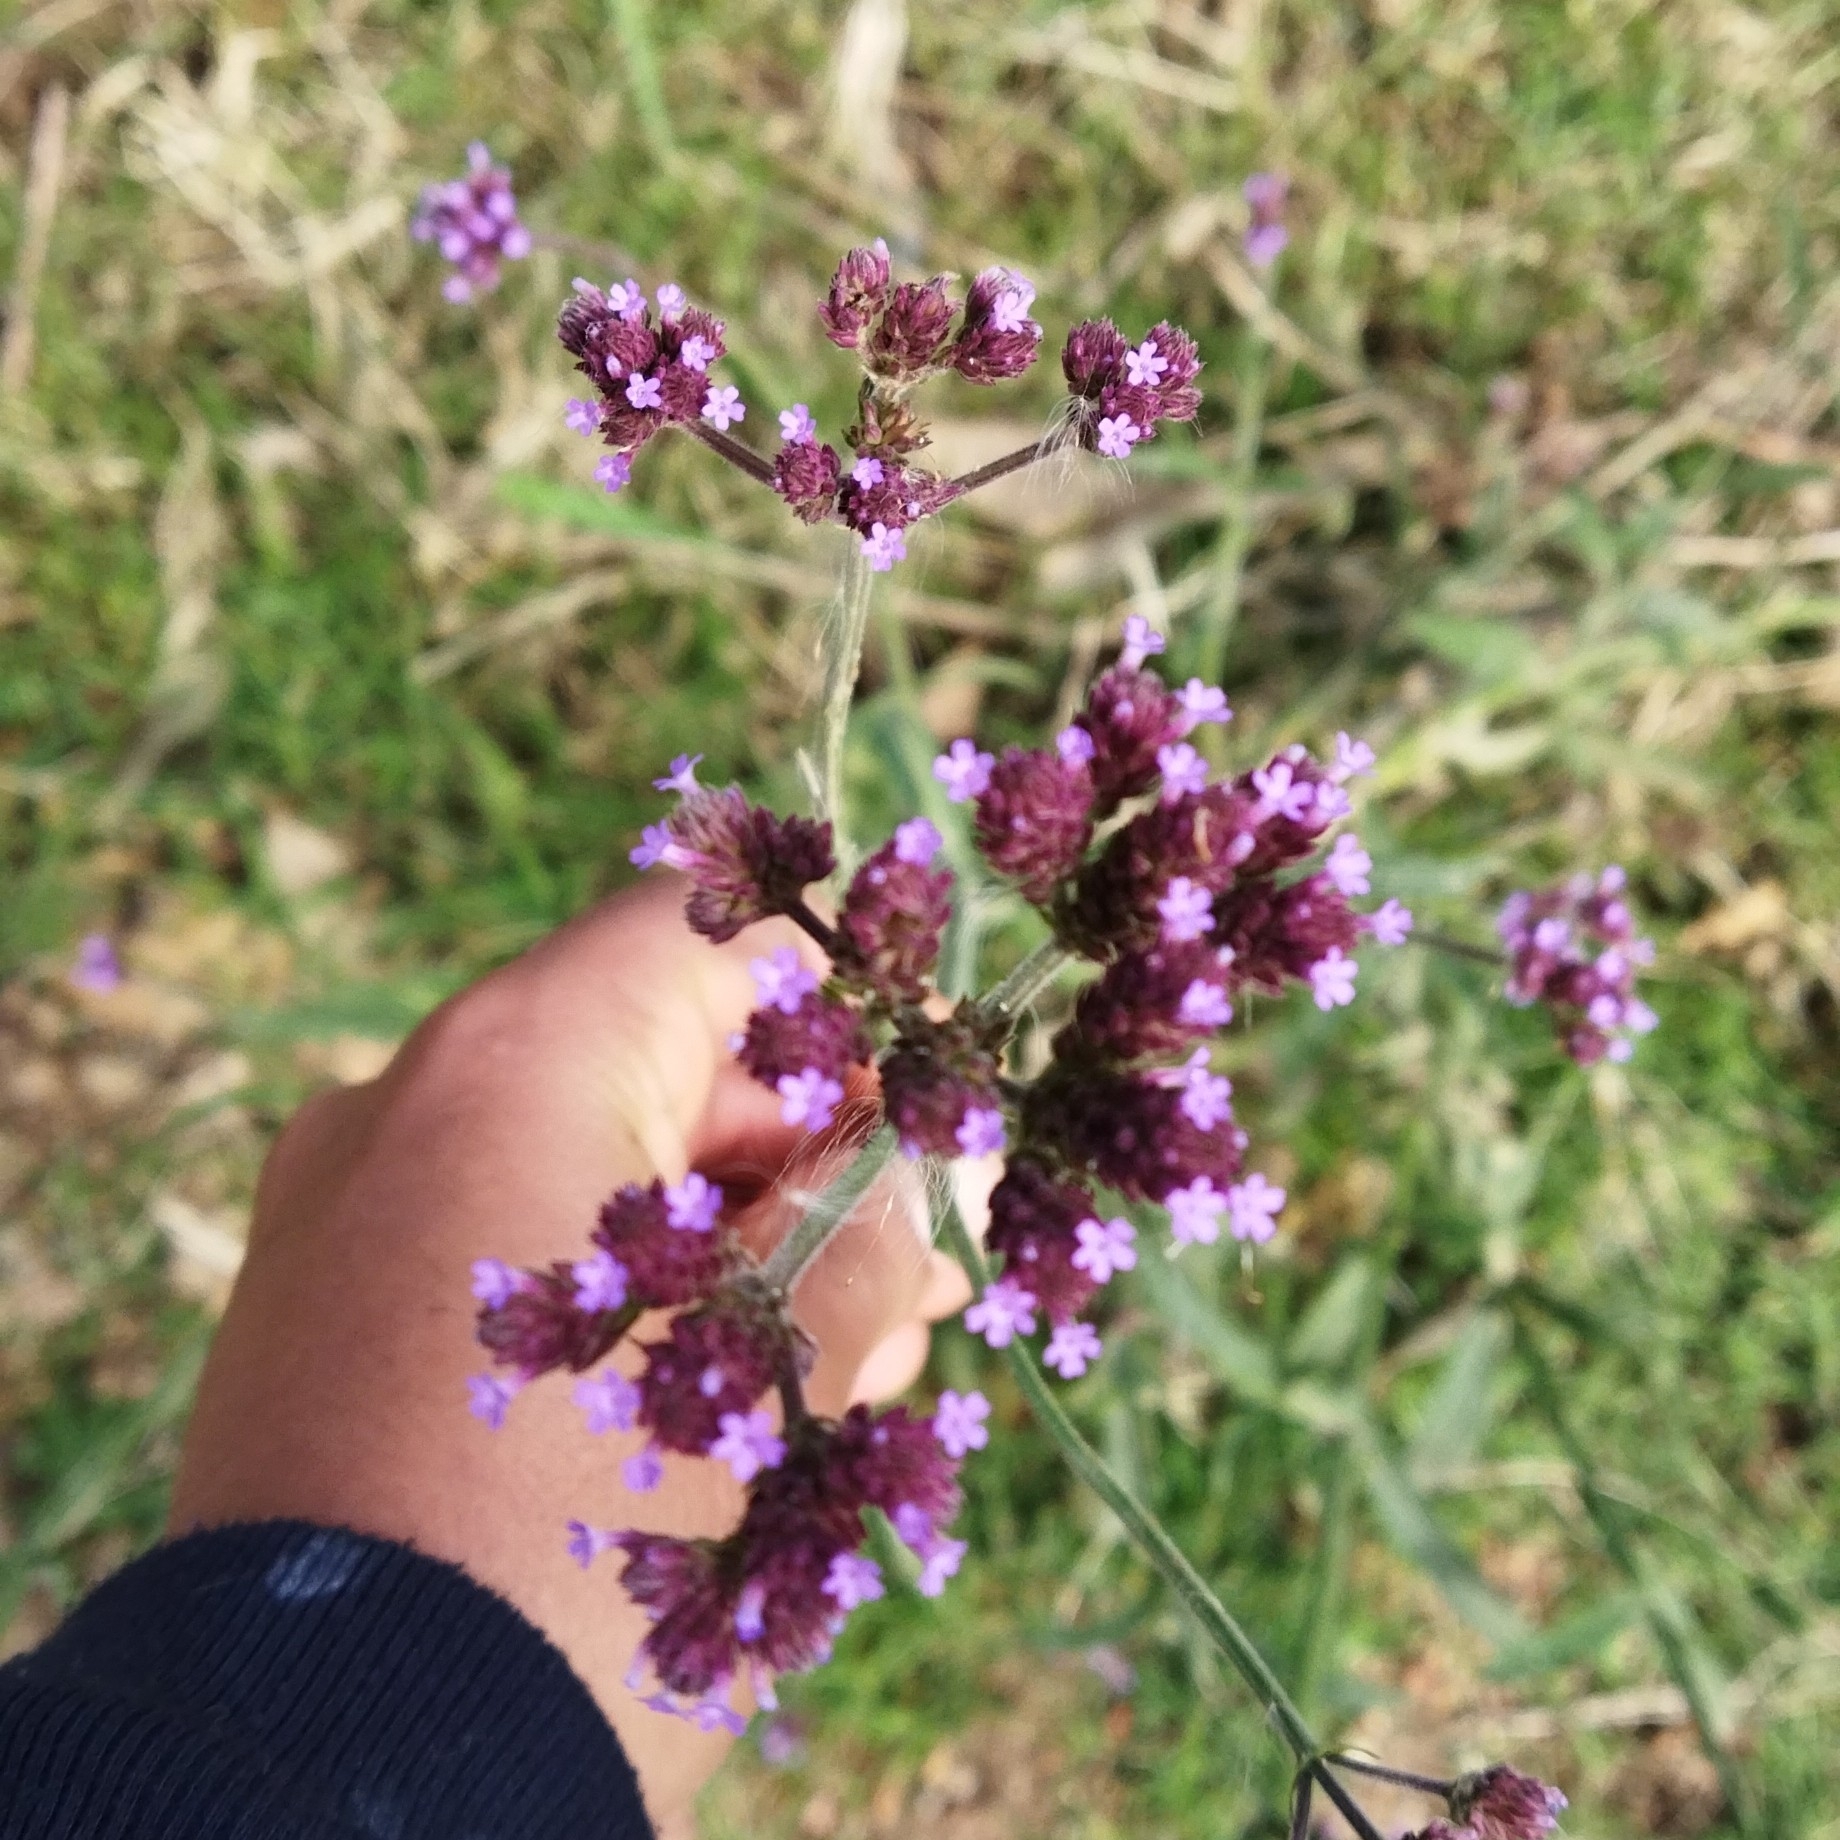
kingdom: Plantae
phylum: Tracheophyta
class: Magnoliopsida
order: Lamiales
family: Verbenaceae
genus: Verbena
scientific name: Verbena bonariensis
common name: Purpletop vervain
